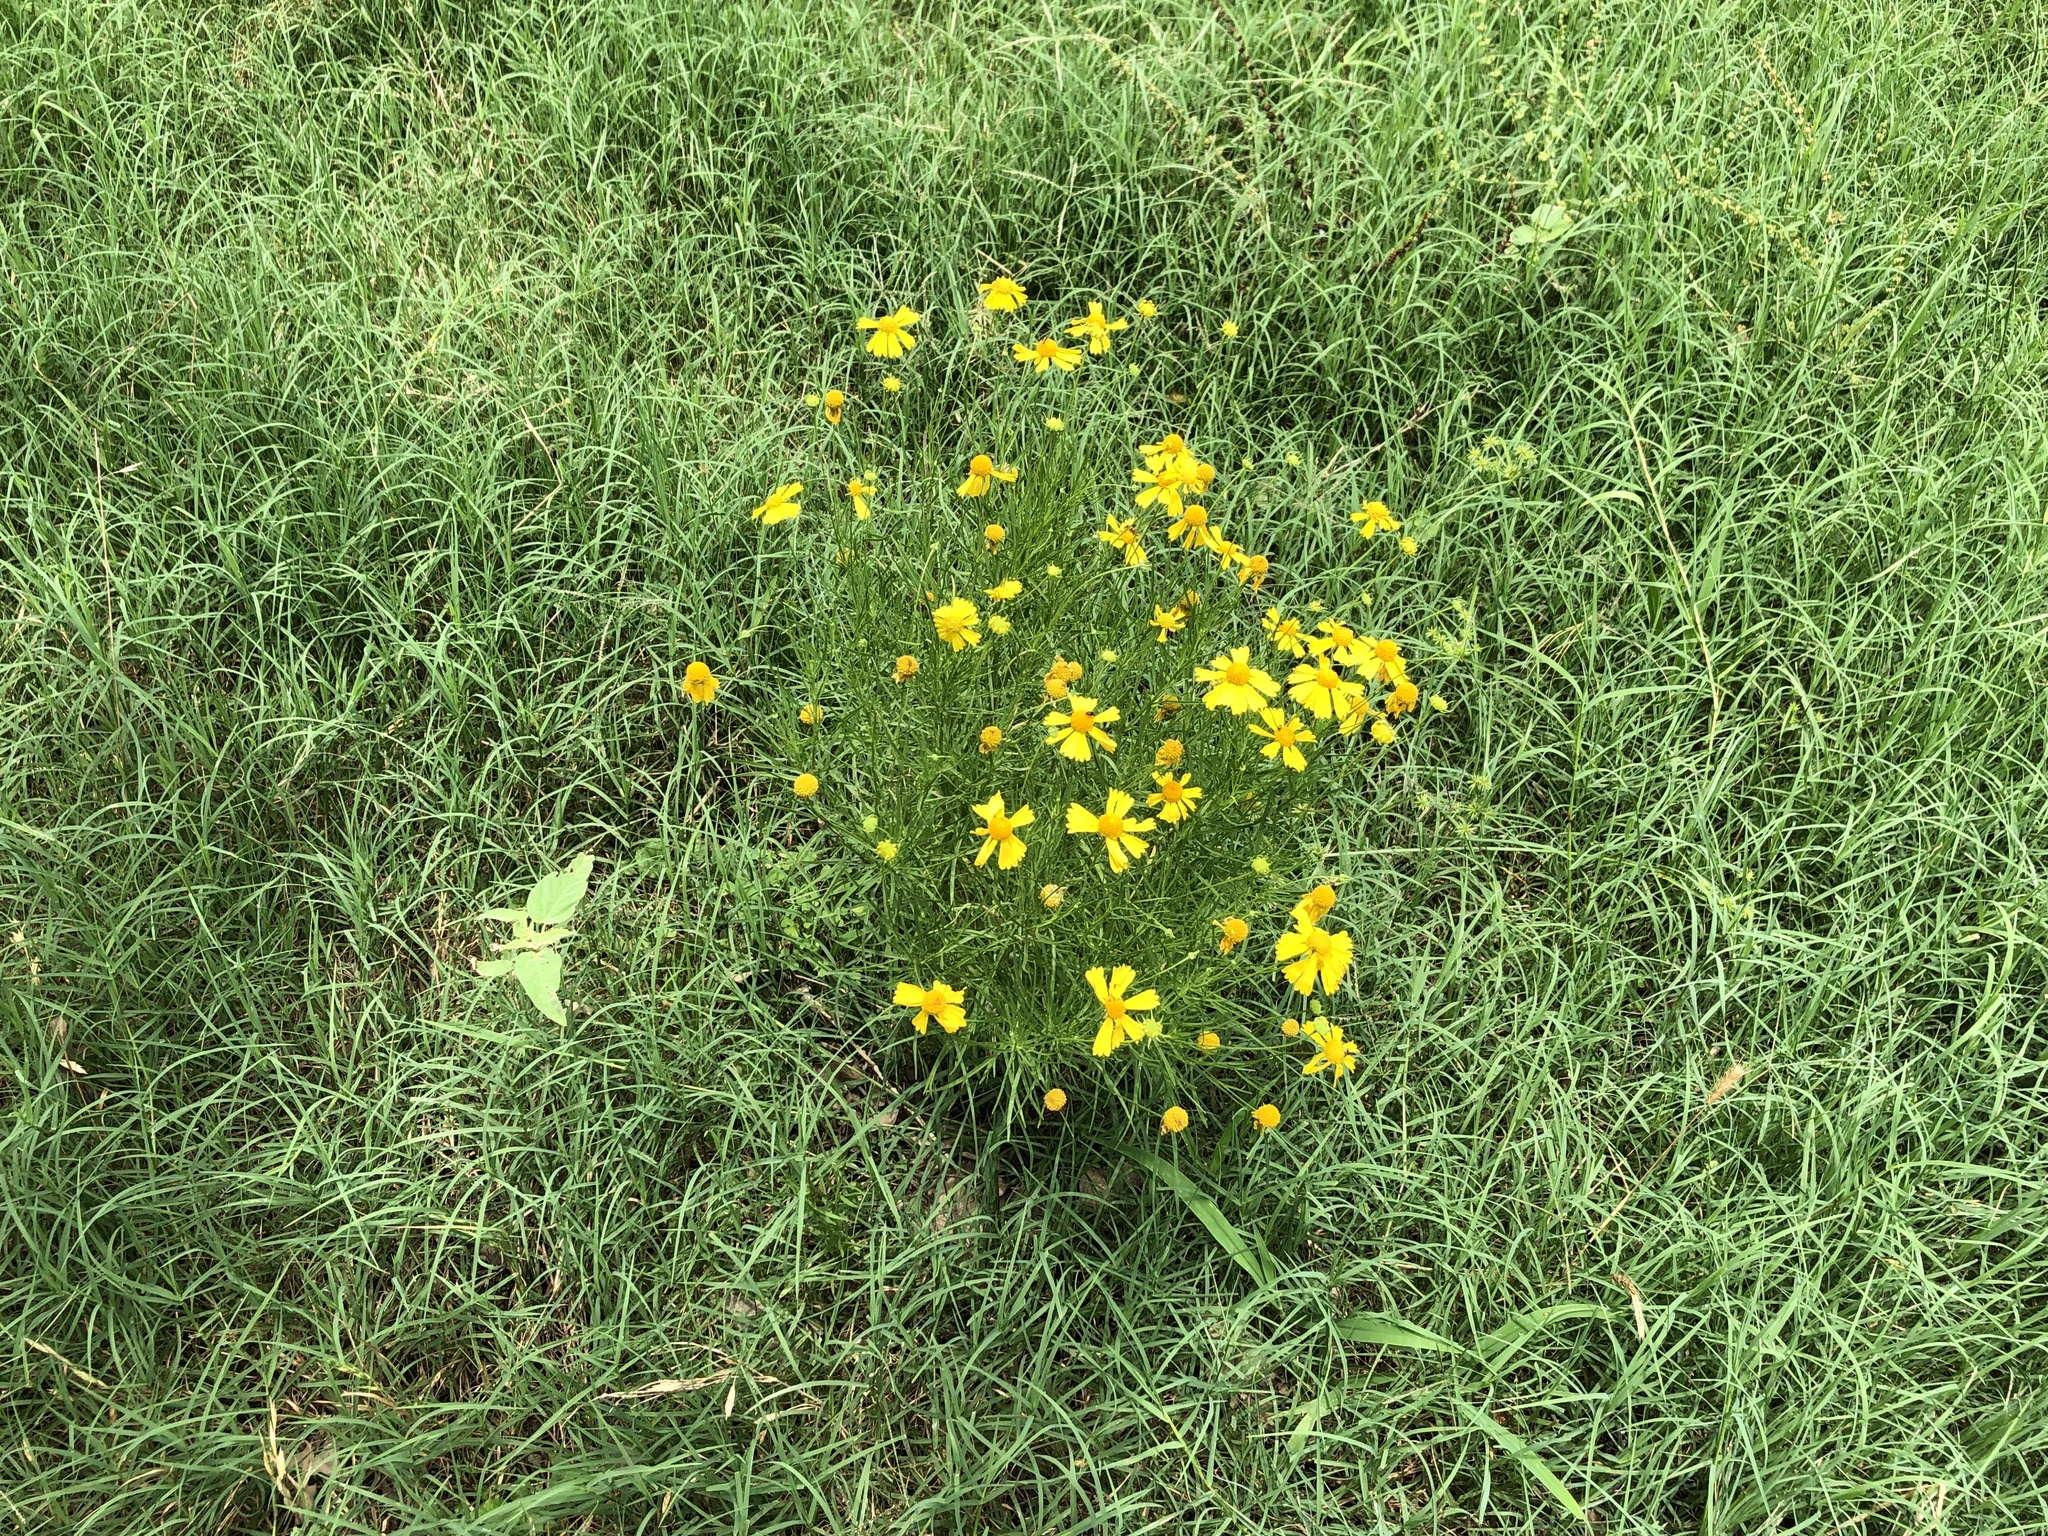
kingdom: Plantae
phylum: Tracheophyta
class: Magnoliopsida
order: Asterales
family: Asteraceae
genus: Helenium
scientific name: Helenium amarum
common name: Bitter sneezeweed
